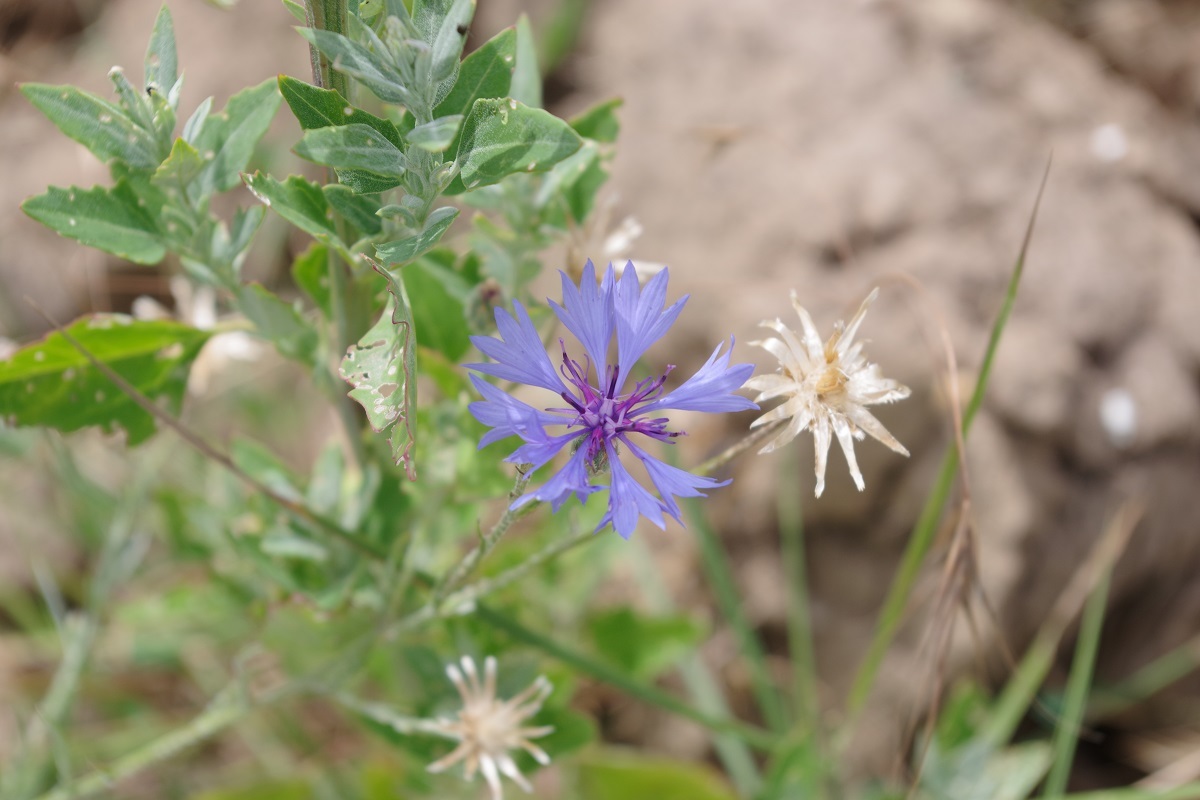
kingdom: Plantae
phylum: Tracheophyta
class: Magnoliopsida
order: Asterales
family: Asteraceae
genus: Centaurea
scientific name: Centaurea cyanus
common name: Cornflower
